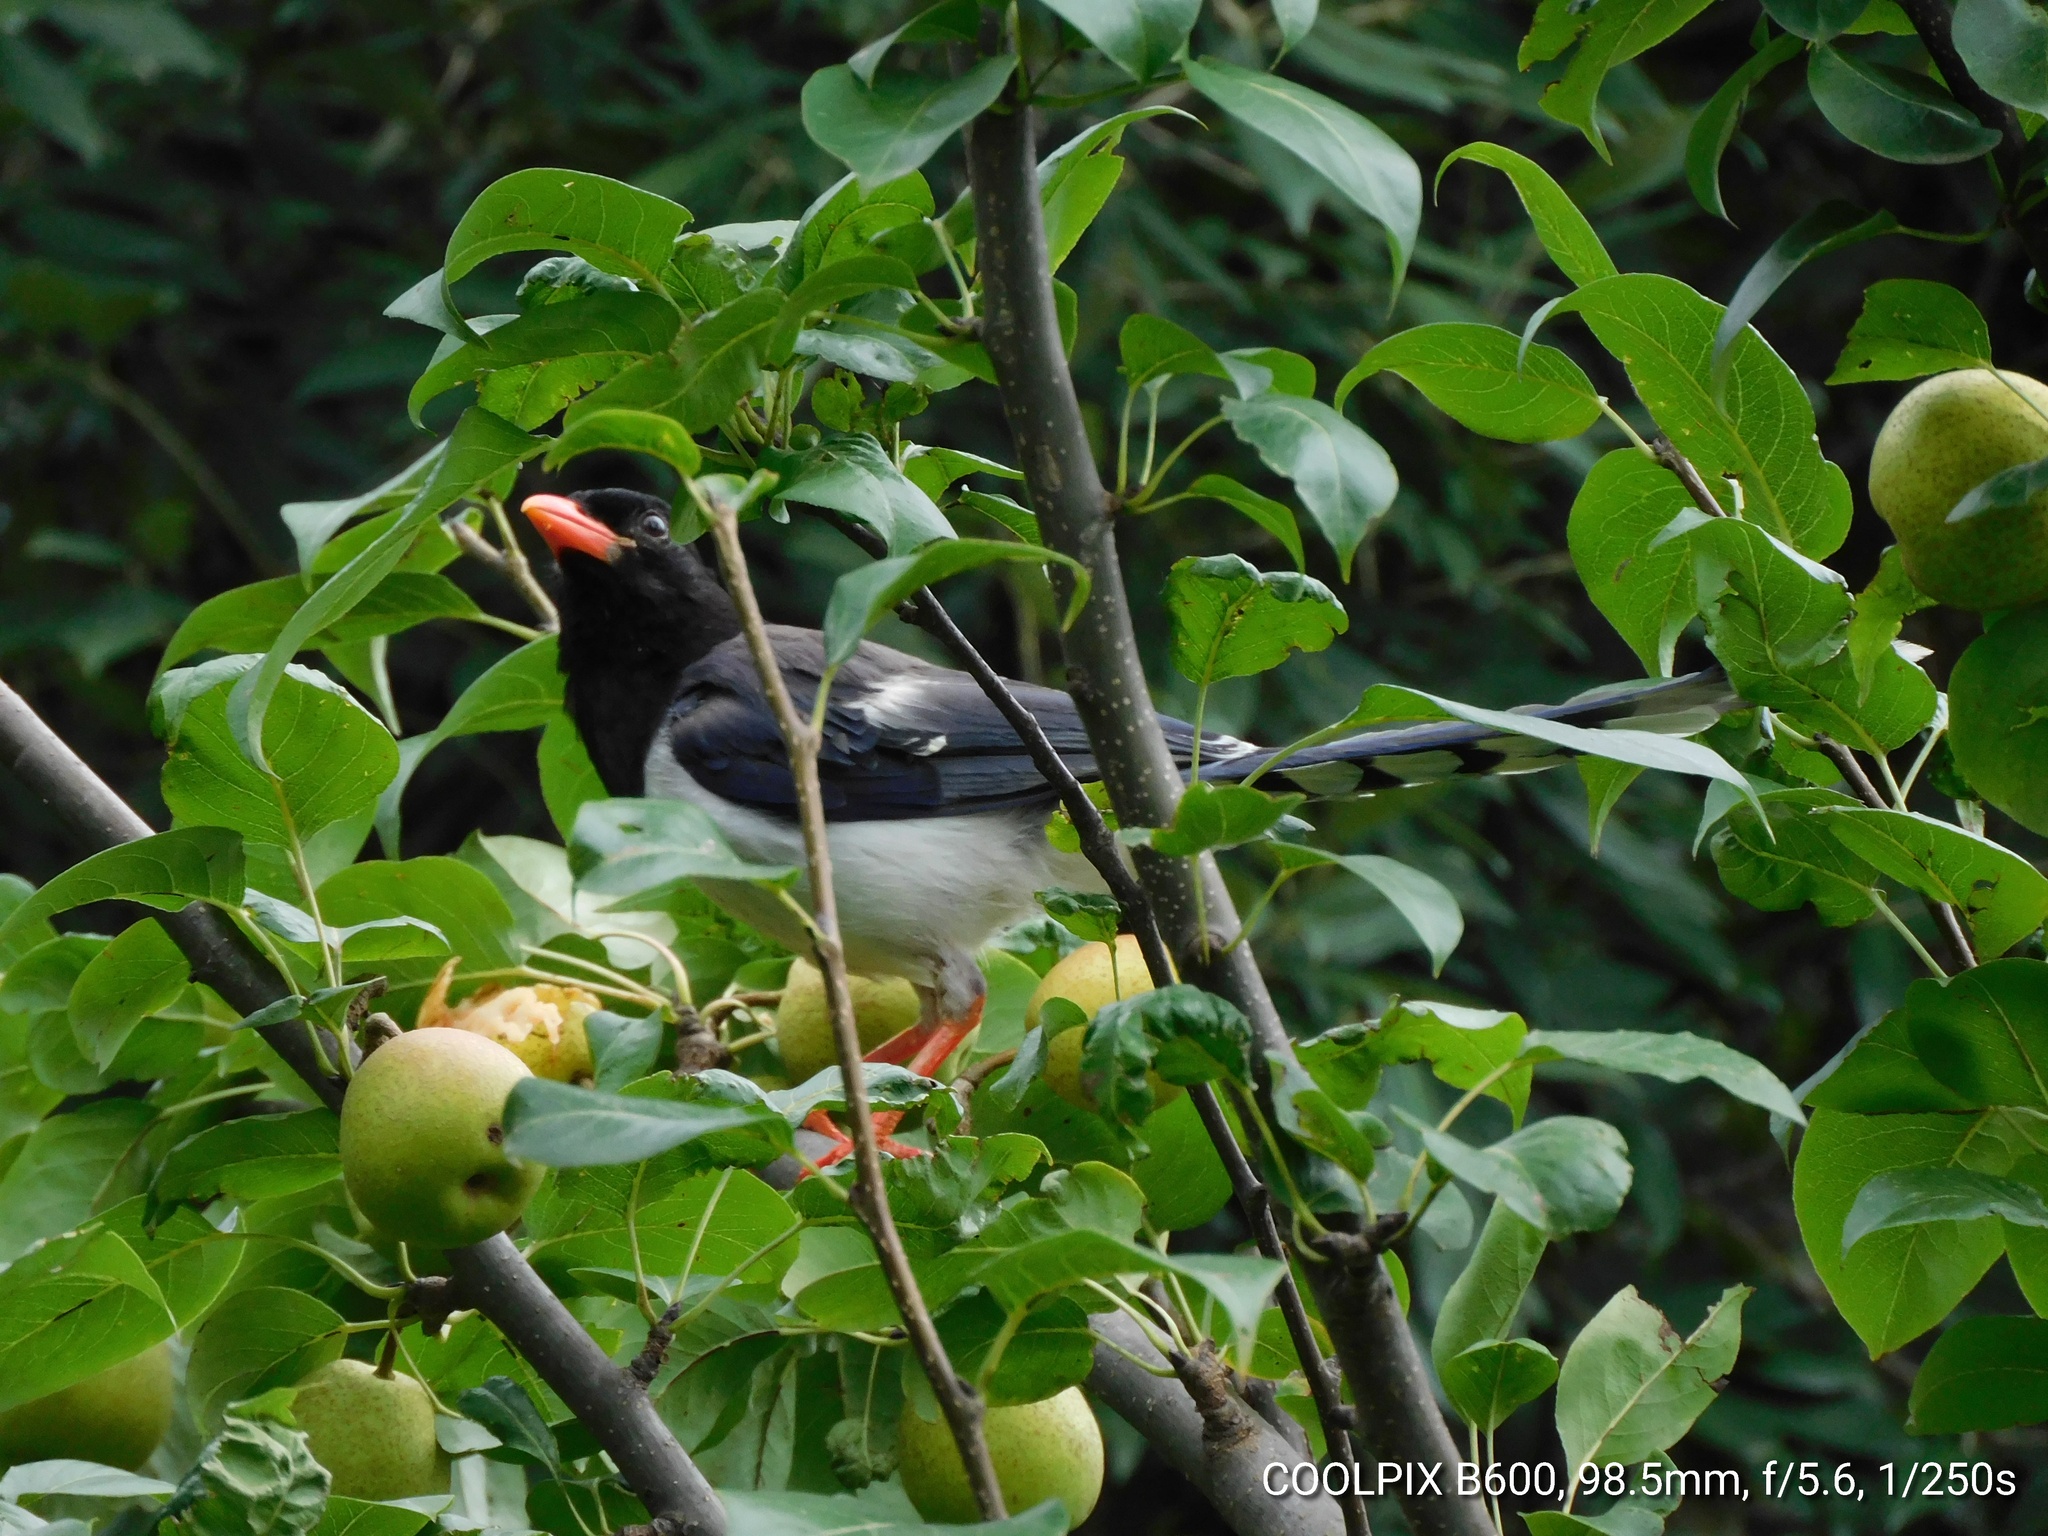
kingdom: Animalia
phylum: Chordata
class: Aves
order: Passeriformes
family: Corvidae
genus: Urocissa
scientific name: Urocissa erythroryncha
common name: Red-billed blue magpie
